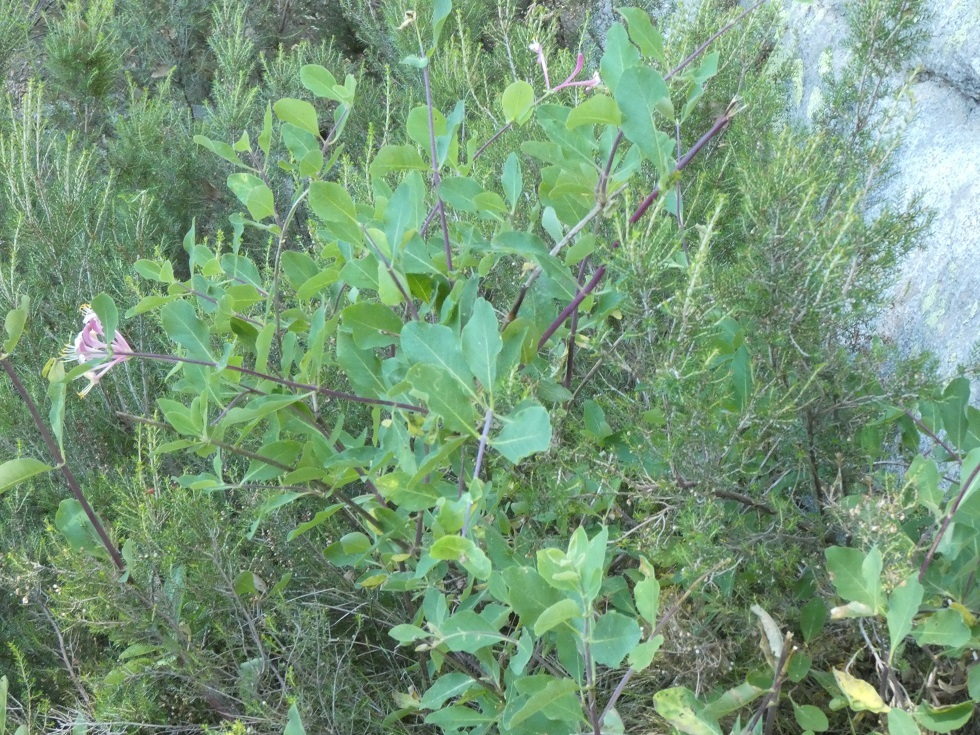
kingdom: Plantae
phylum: Tracheophyta
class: Magnoliopsida
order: Dipsacales
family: Caprifoliaceae
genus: Lonicera
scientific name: Lonicera etrusca
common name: Etruscan honeysuckle
